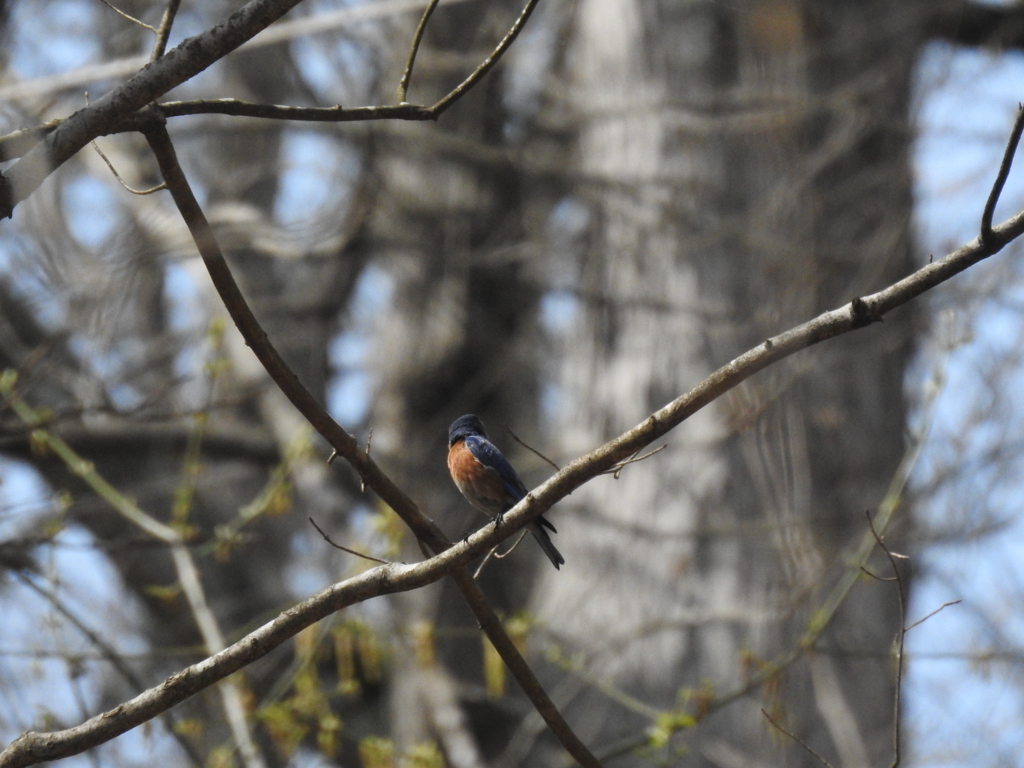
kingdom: Animalia
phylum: Chordata
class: Aves
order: Passeriformes
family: Turdidae
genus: Sialia
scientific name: Sialia sialis
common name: Eastern bluebird
